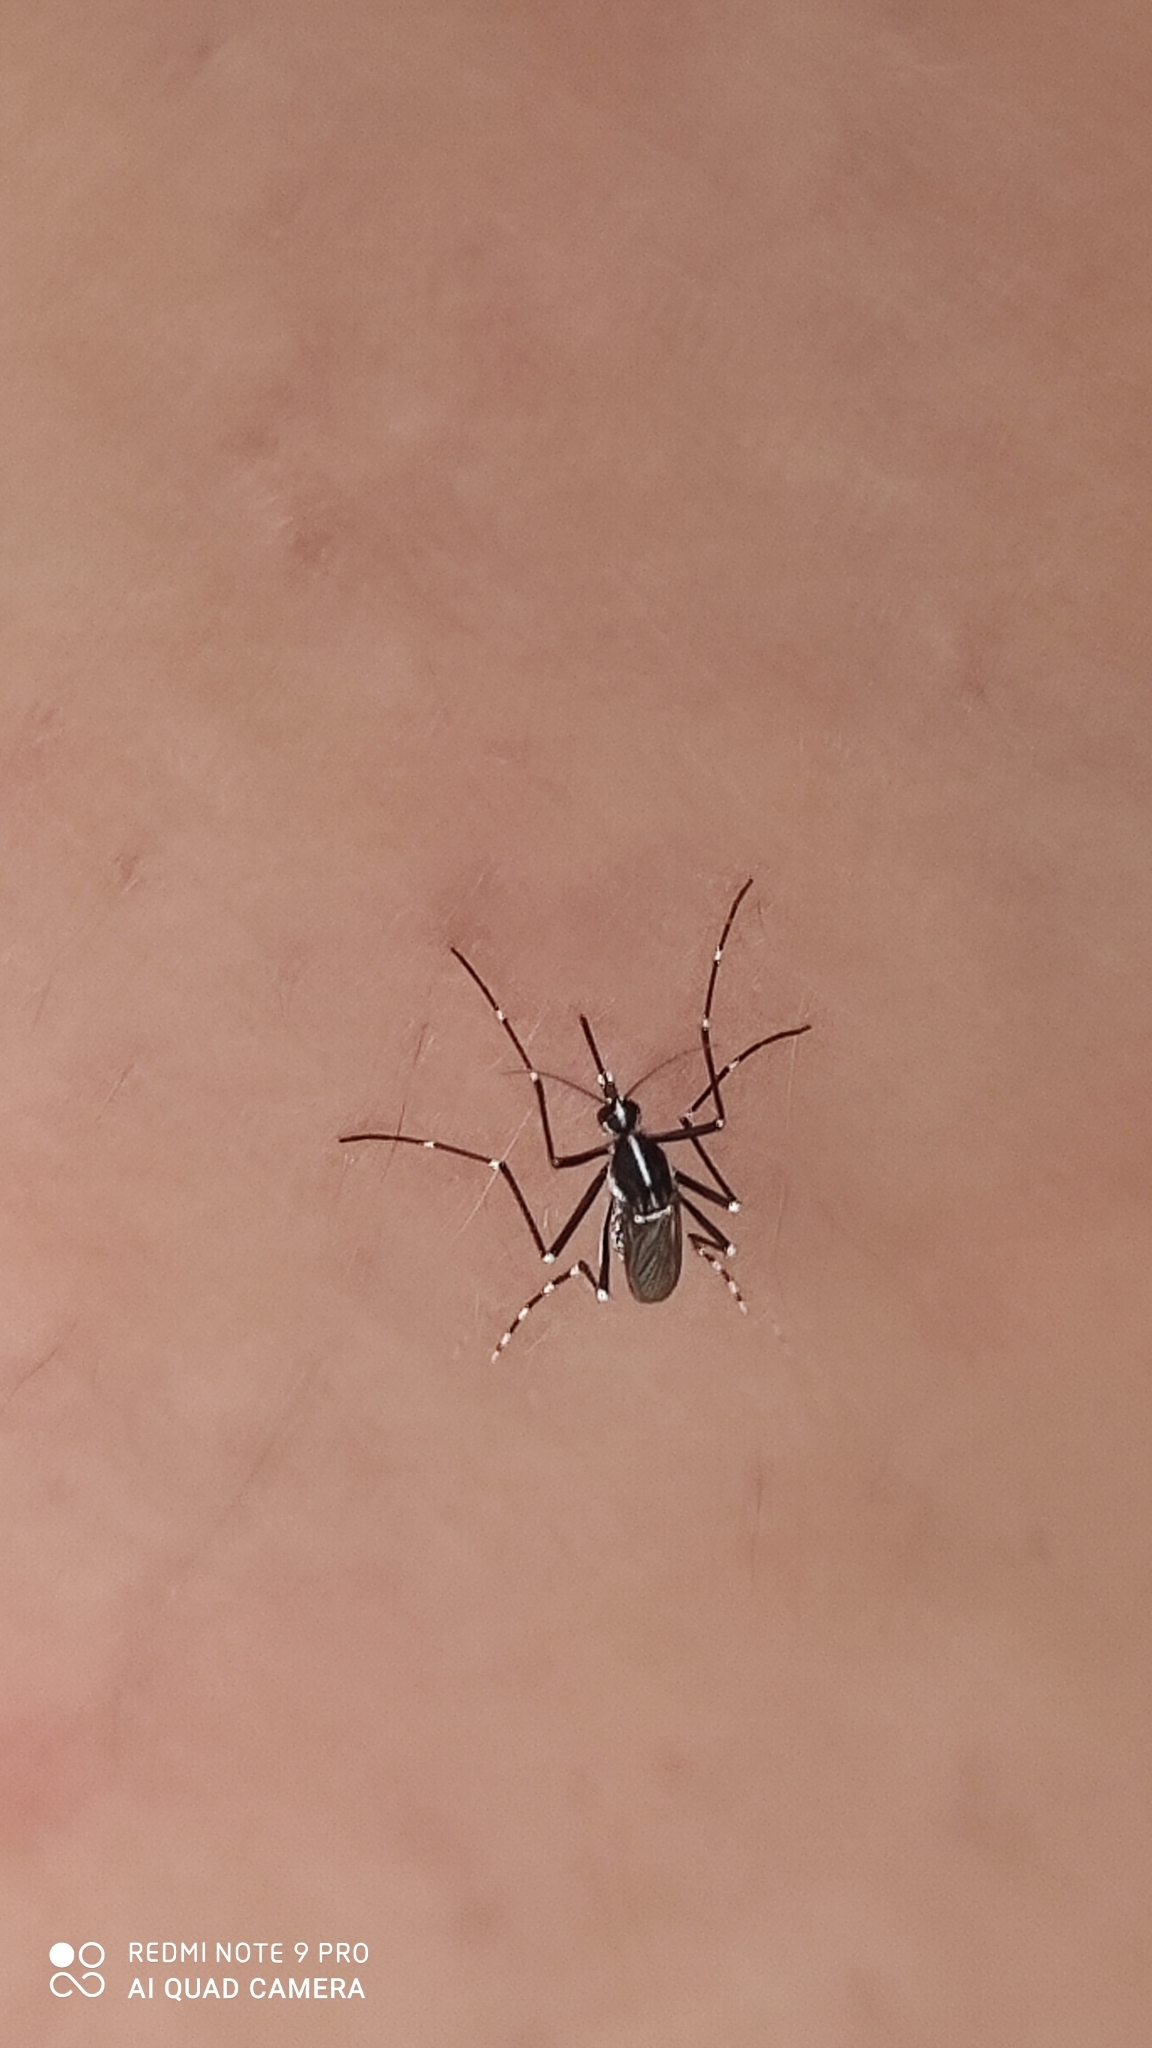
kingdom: Animalia
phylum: Arthropoda
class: Insecta
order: Diptera
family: Culicidae
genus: Aedes
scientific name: Aedes albopictus
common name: Tiger mosquito
